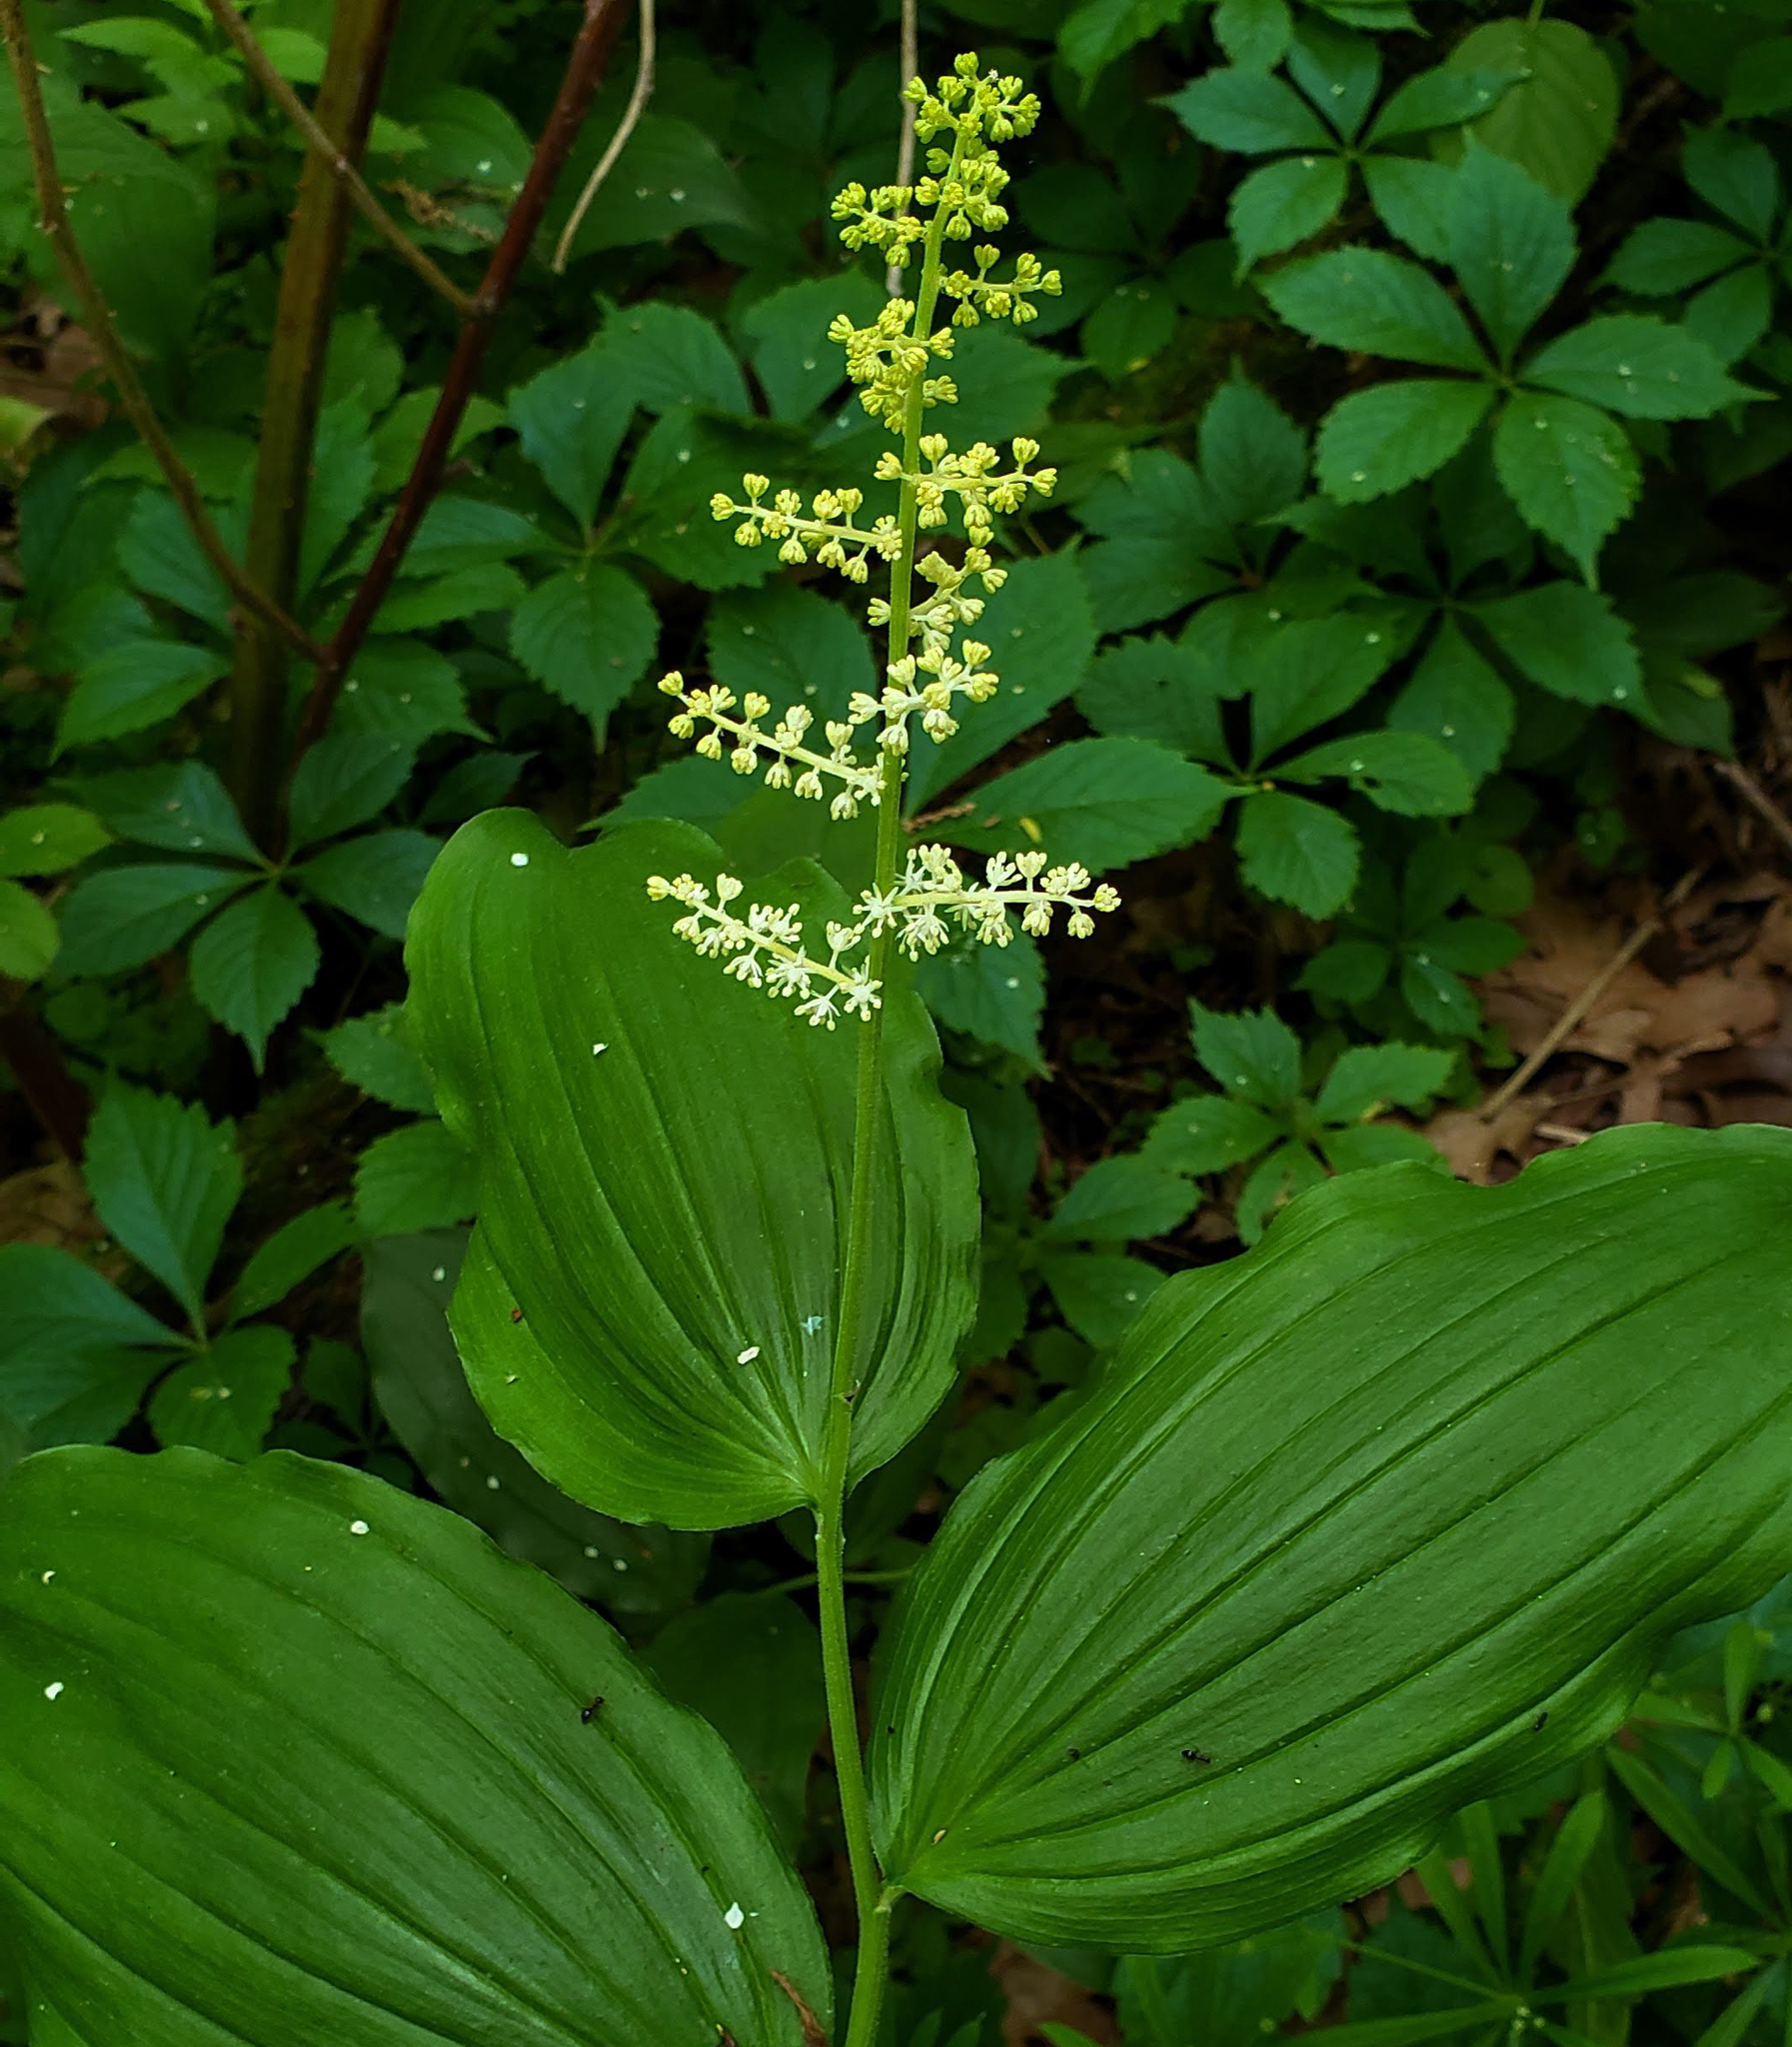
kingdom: Plantae
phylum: Tracheophyta
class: Liliopsida
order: Asparagales
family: Asparagaceae
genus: Maianthemum
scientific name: Maianthemum racemosum
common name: False spikenard
